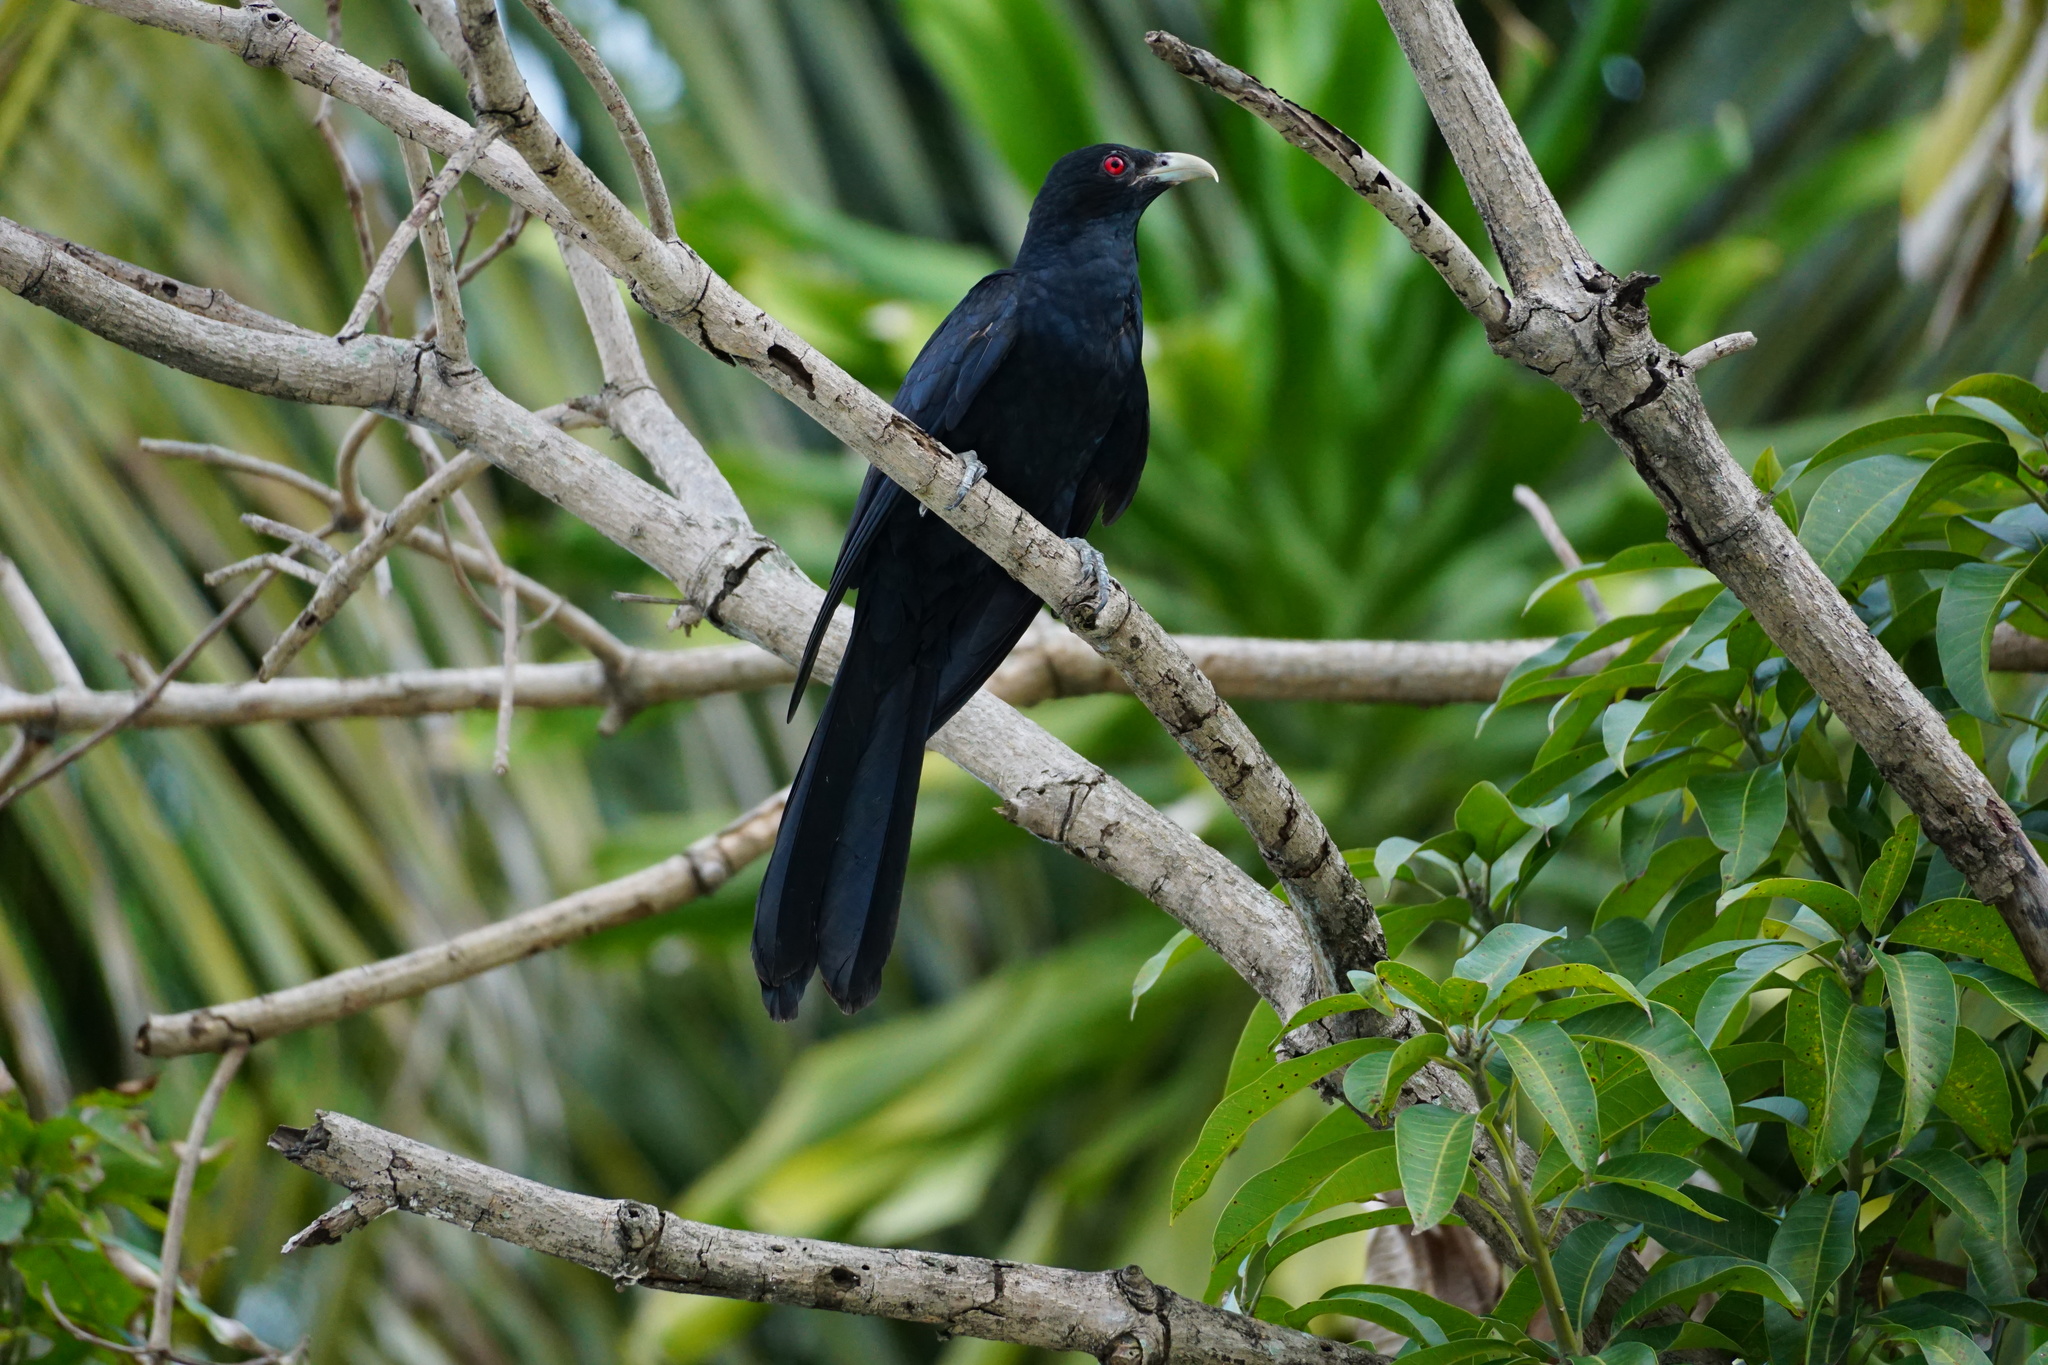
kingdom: Animalia
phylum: Chordata
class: Aves
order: Cuculiformes
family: Cuculidae
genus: Eudynamys
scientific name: Eudynamys scolopaceus
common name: Asian koel
